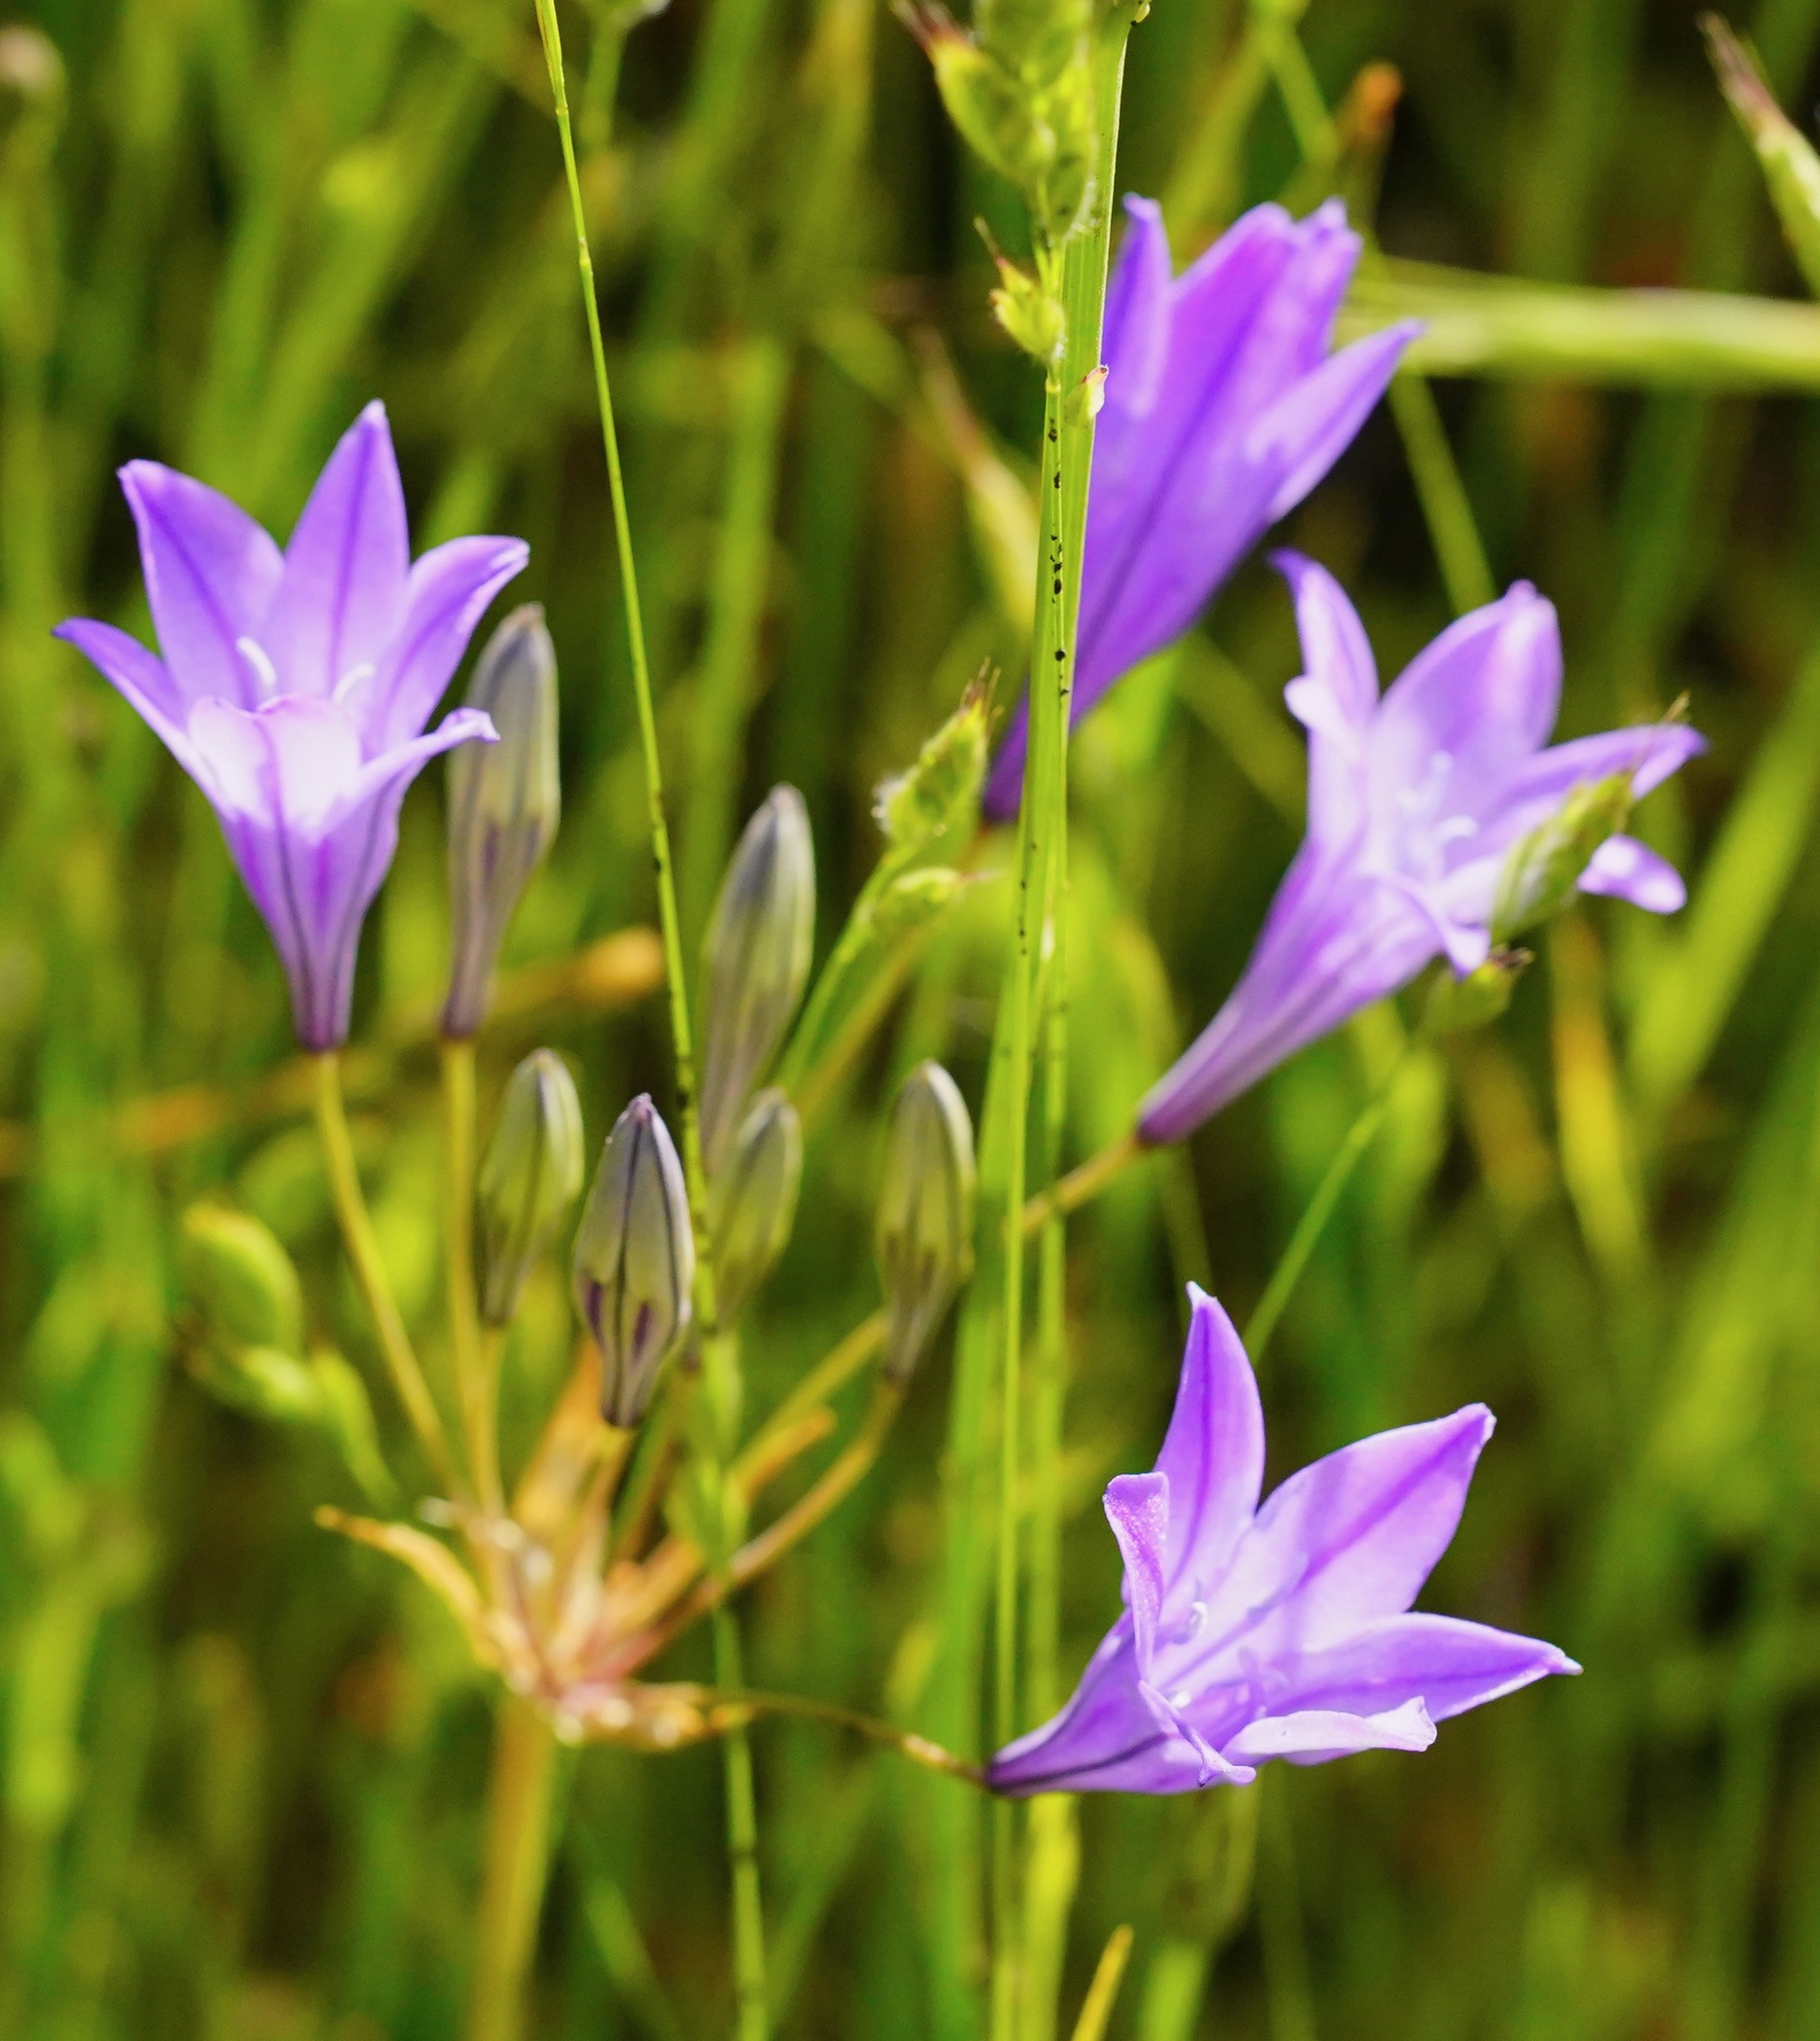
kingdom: Plantae
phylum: Tracheophyta
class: Liliopsida
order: Asparagales
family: Asparagaceae
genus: Triteleia
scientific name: Triteleia laxa
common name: Triplet-lily
